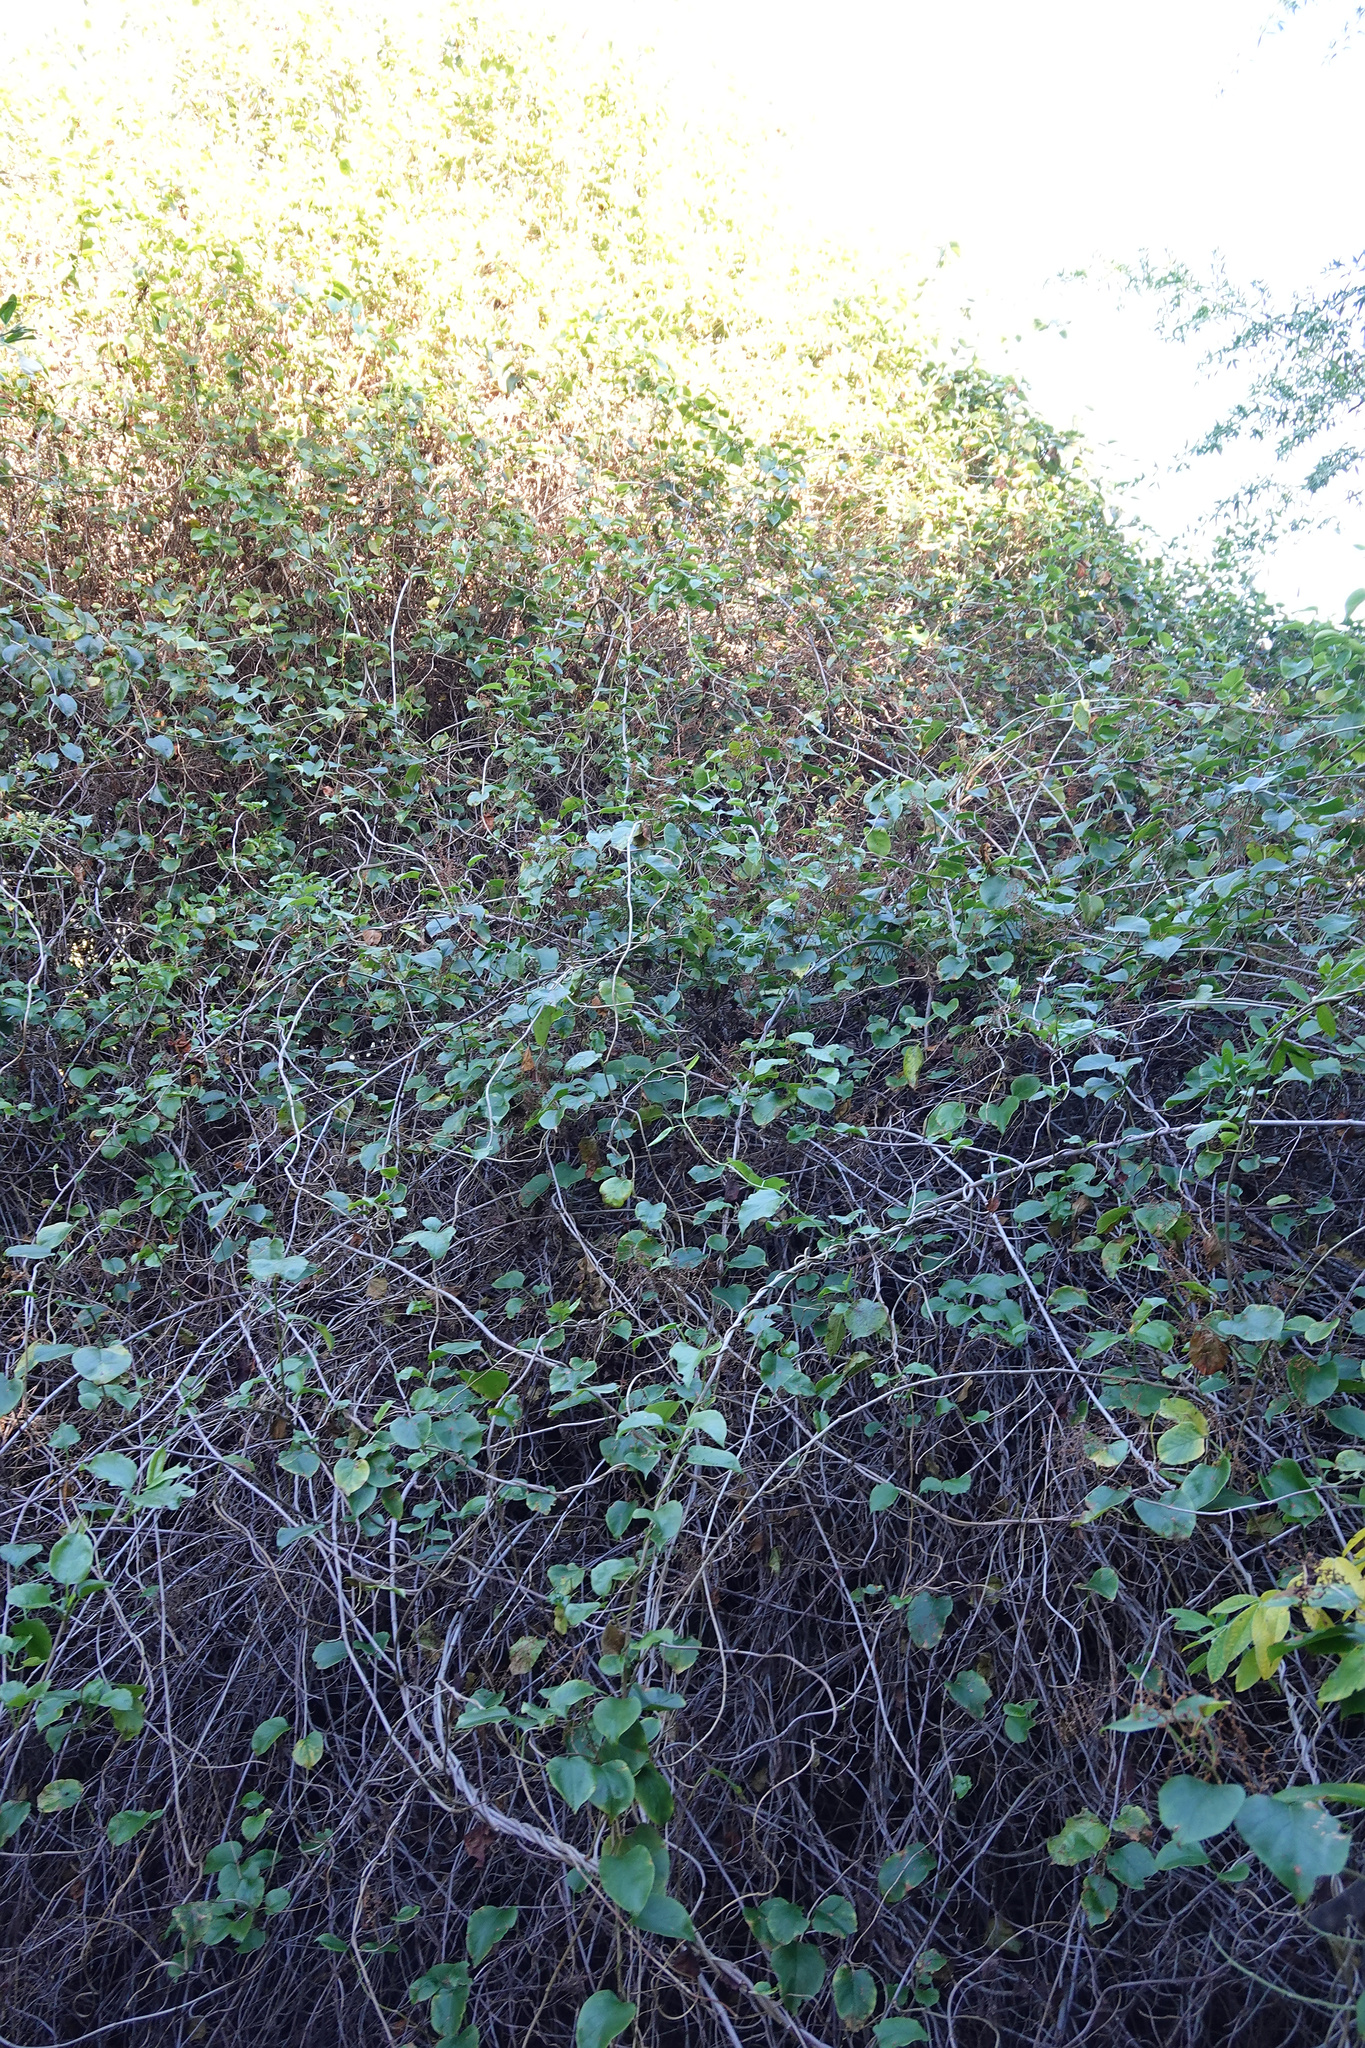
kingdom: Plantae
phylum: Tracheophyta
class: Magnoliopsida
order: Caryophyllales
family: Polygonaceae
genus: Muehlenbeckia
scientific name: Muehlenbeckia australis
